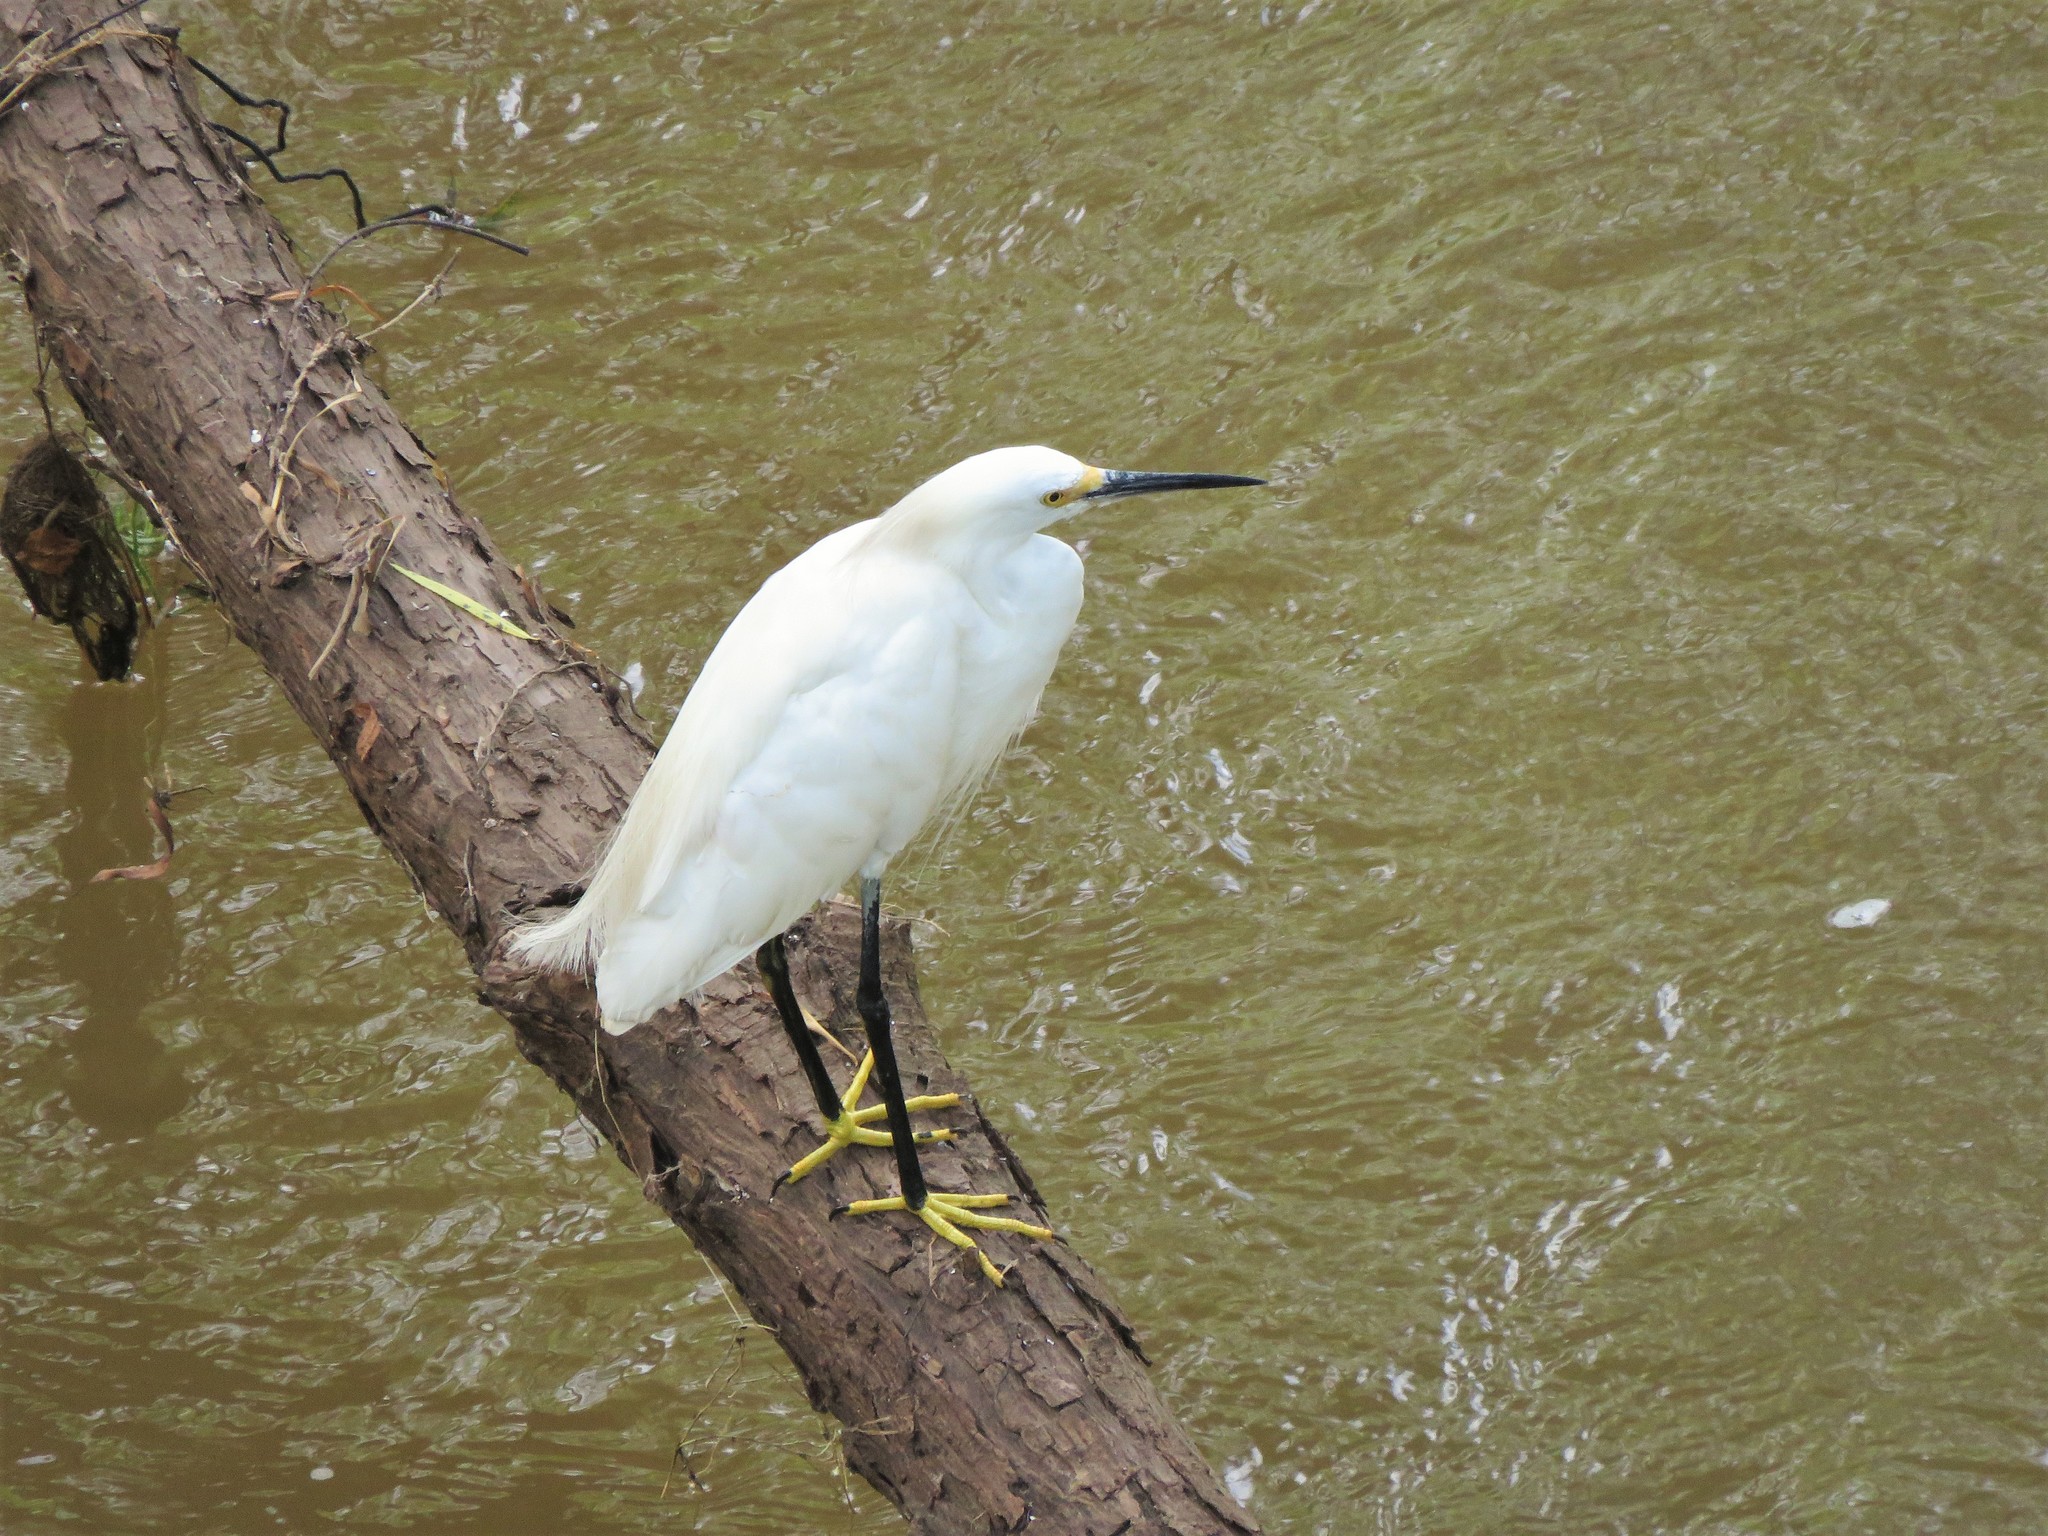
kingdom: Animalia
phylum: Chordata
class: Aves
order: Pelecaniformes
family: Ardeidae
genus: Egretta
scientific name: Egretta thula
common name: Snowy egret
